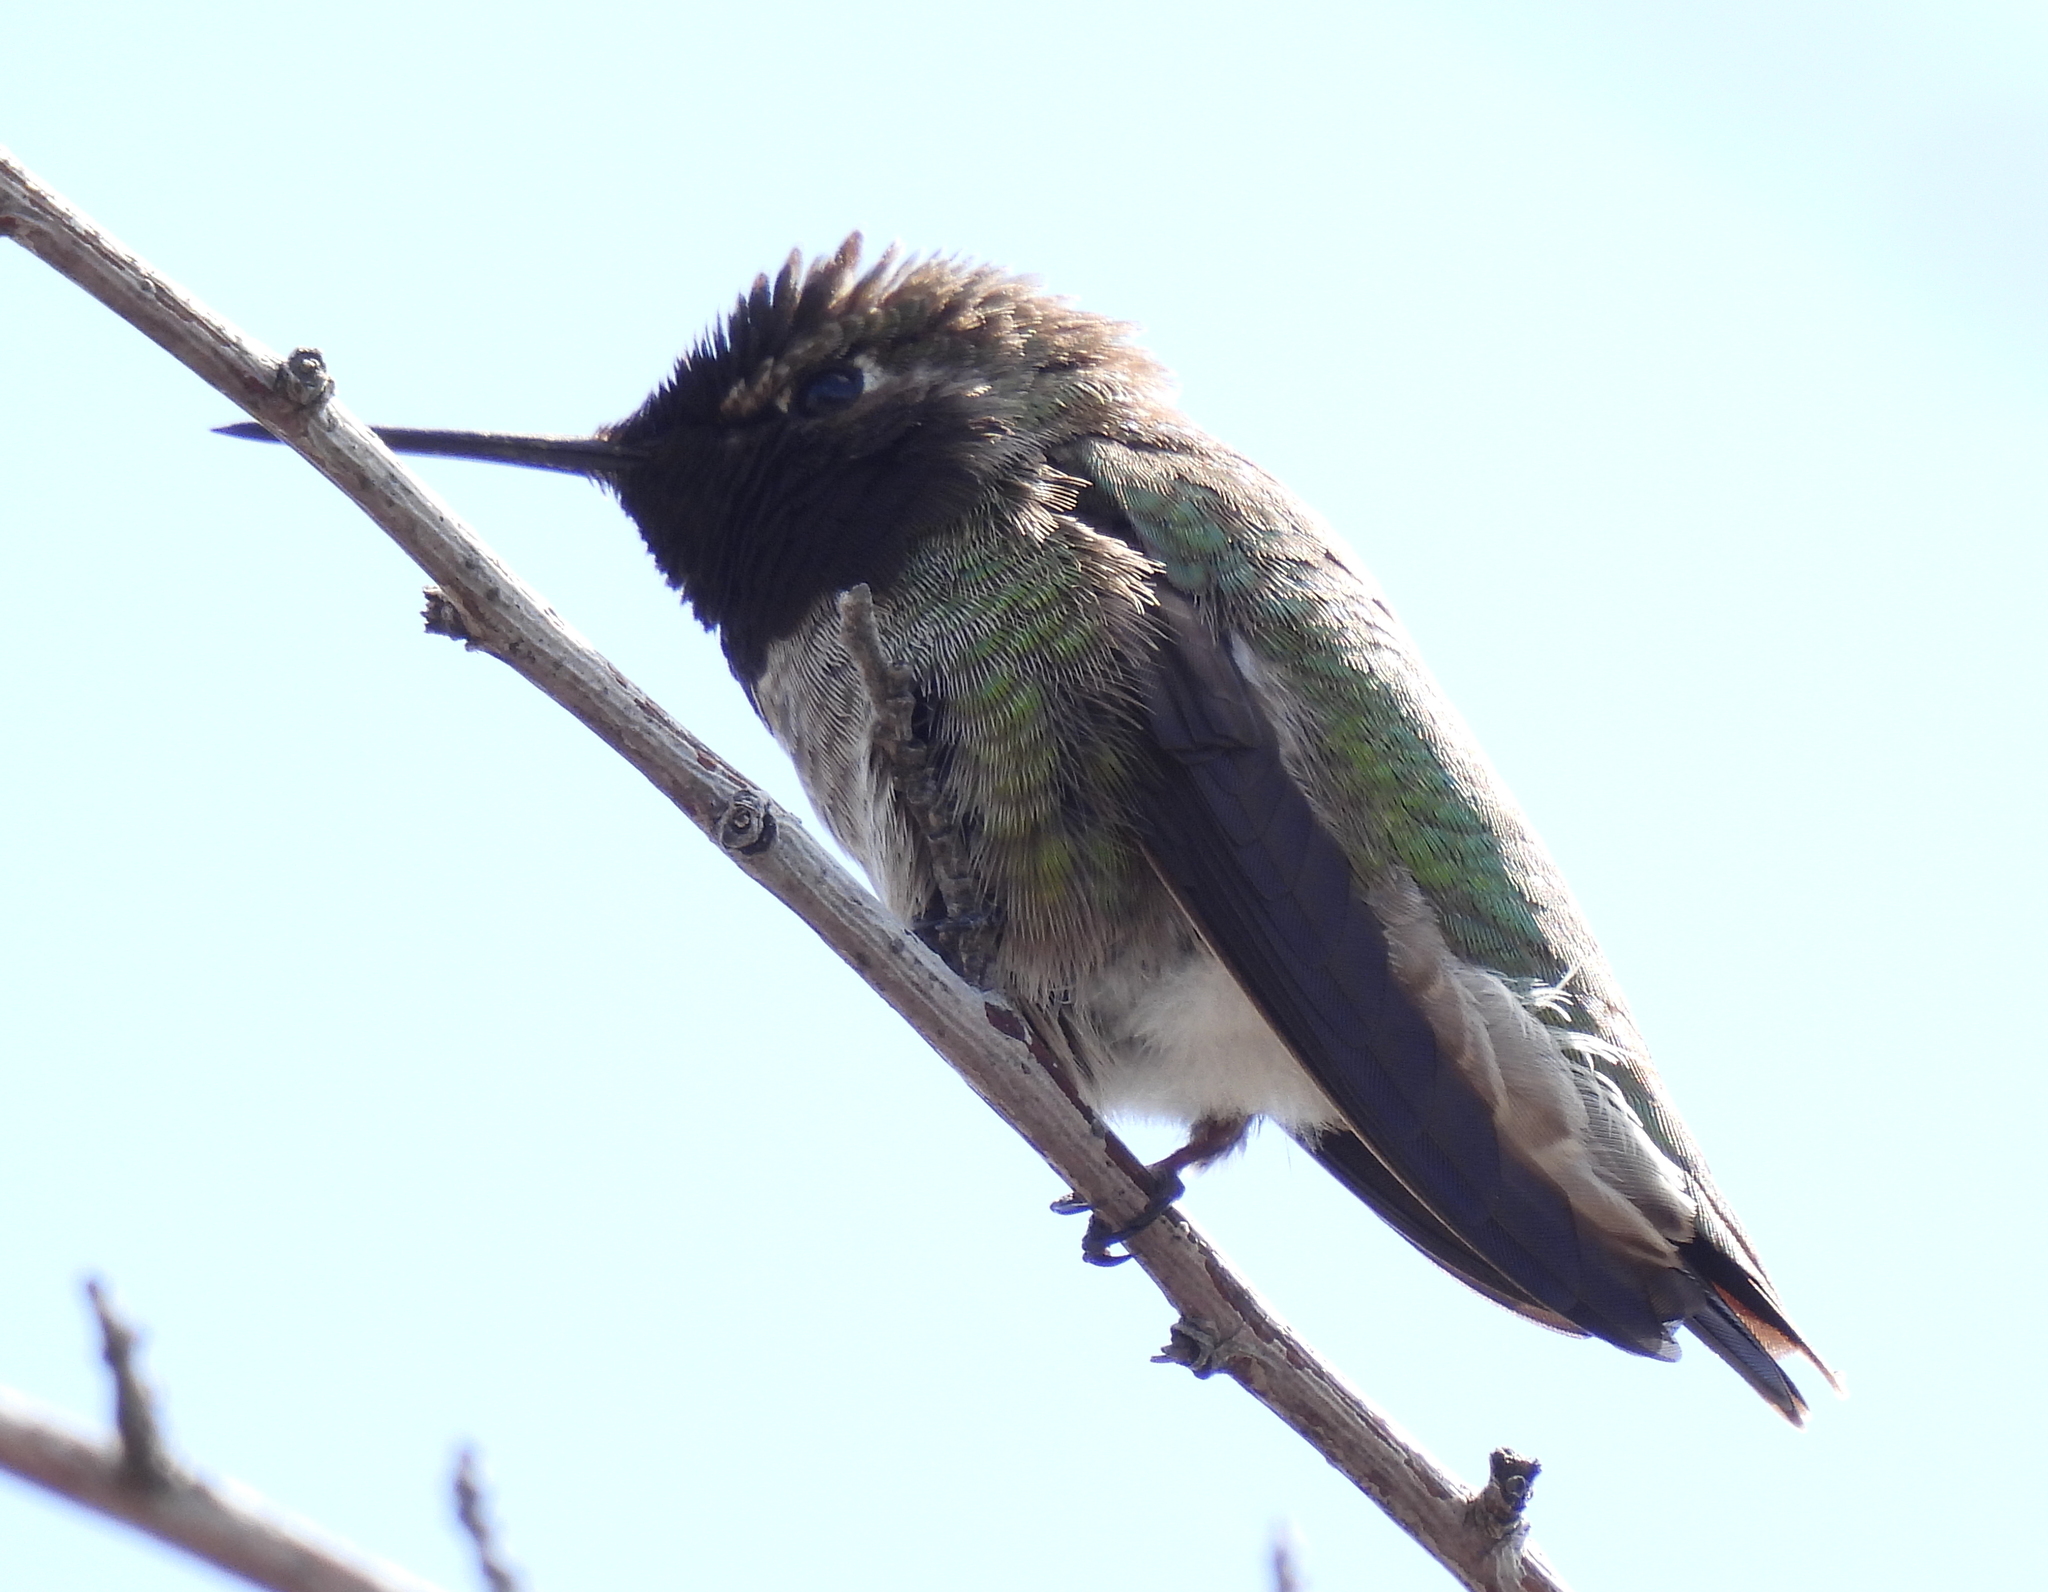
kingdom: Animalia
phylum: Chordata
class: Aves
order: Apodiformes
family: Trochilidae
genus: Calypte
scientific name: Calypte anna
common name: Anna's hummingbird
